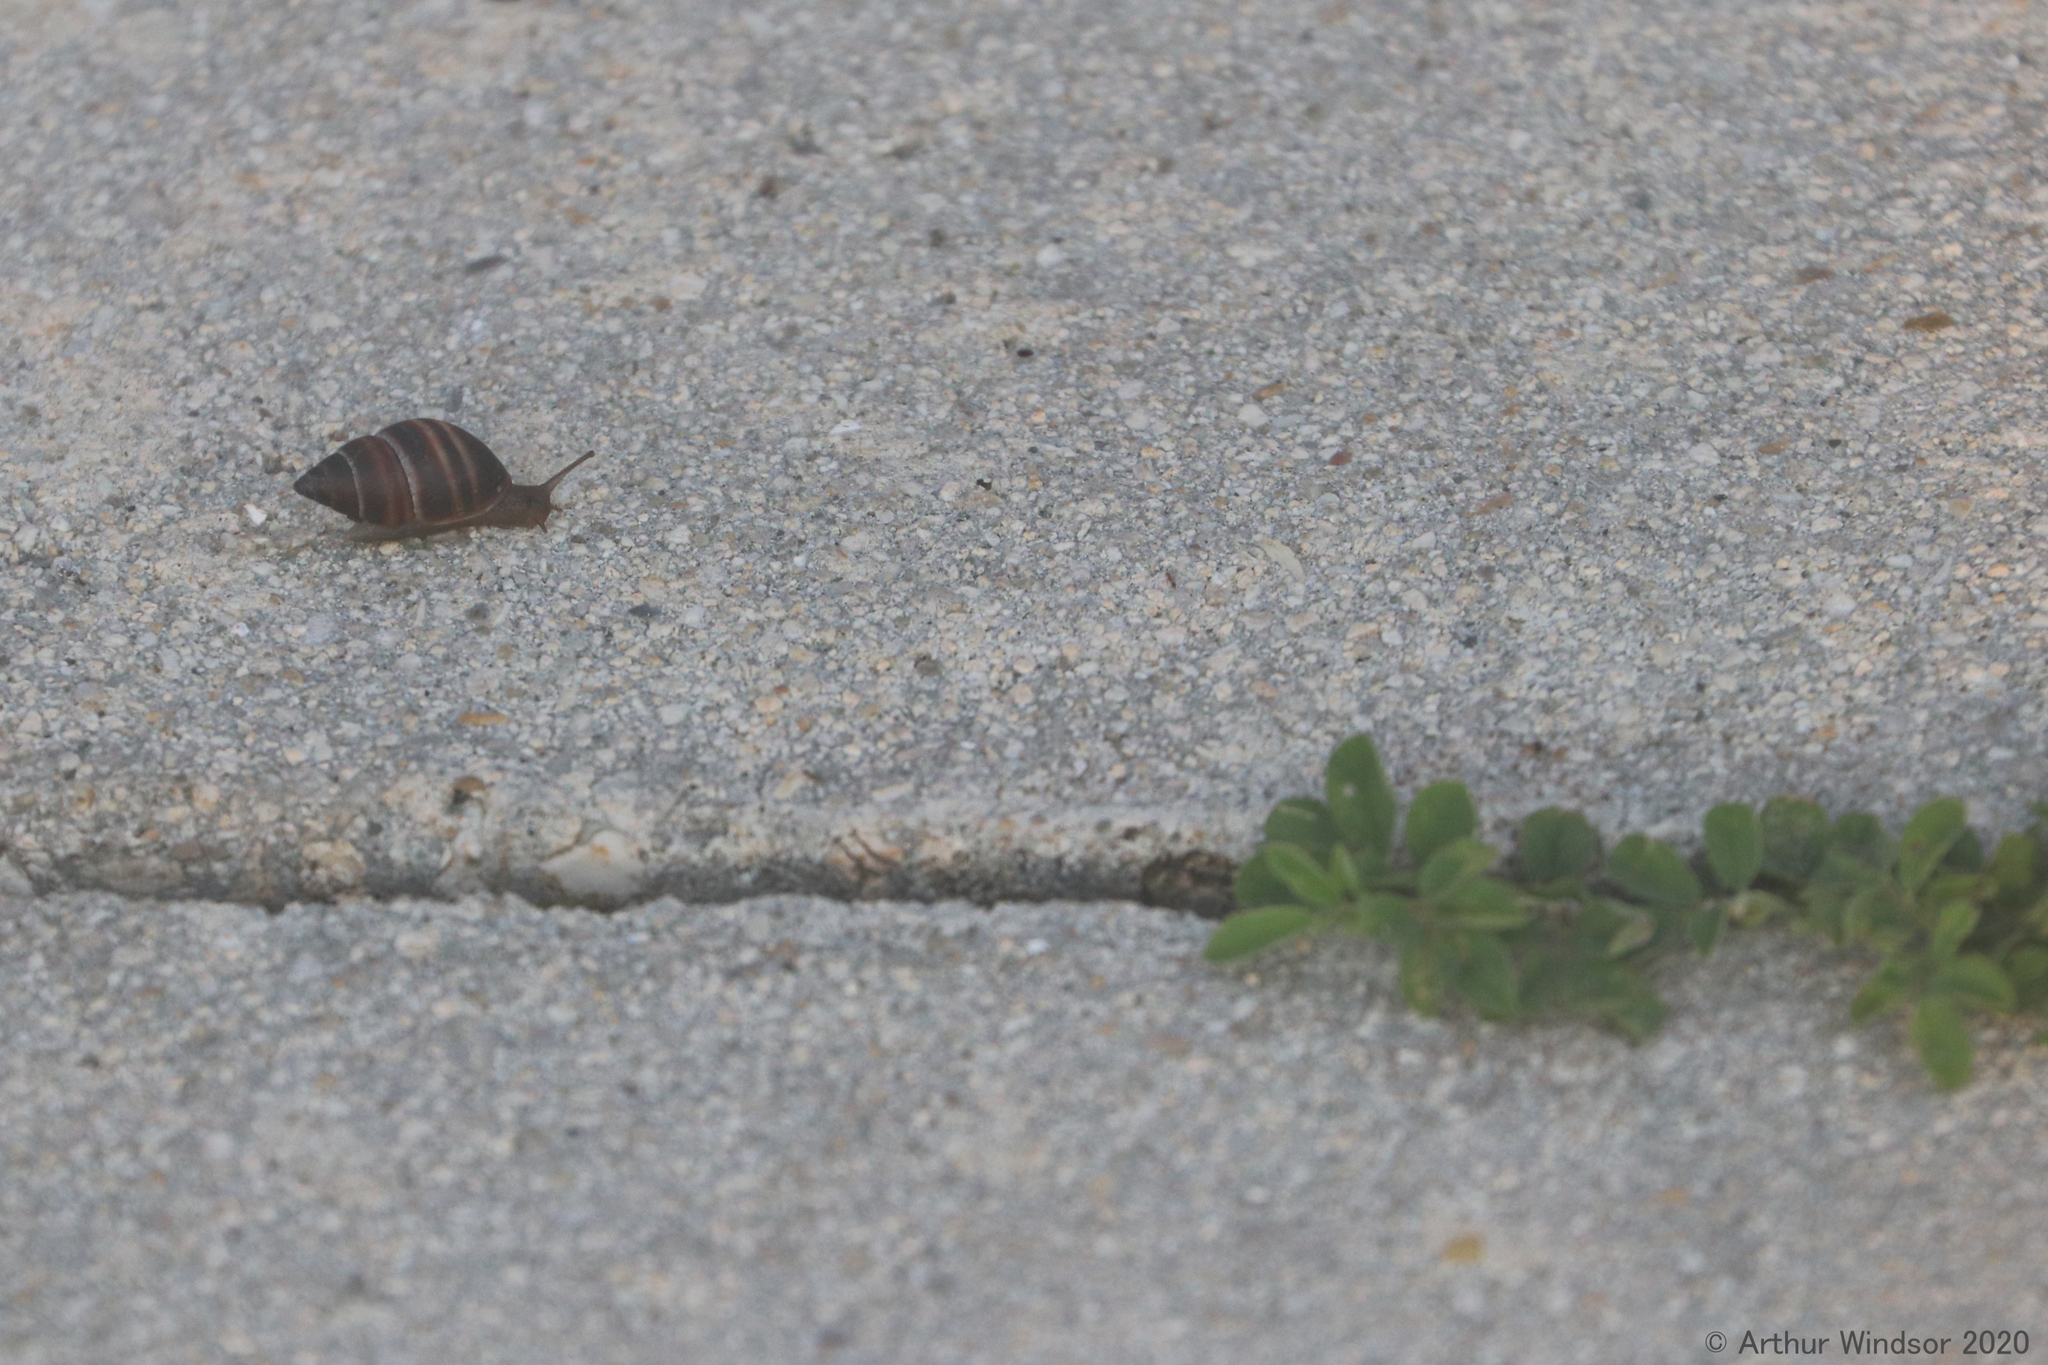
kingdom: Animalia
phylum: Mollusca
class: Gastropoda
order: Stylommatophora
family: Bulimulidae
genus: Bulimulus
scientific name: Bulimulus guadalupensis
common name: West indian bulimulus
